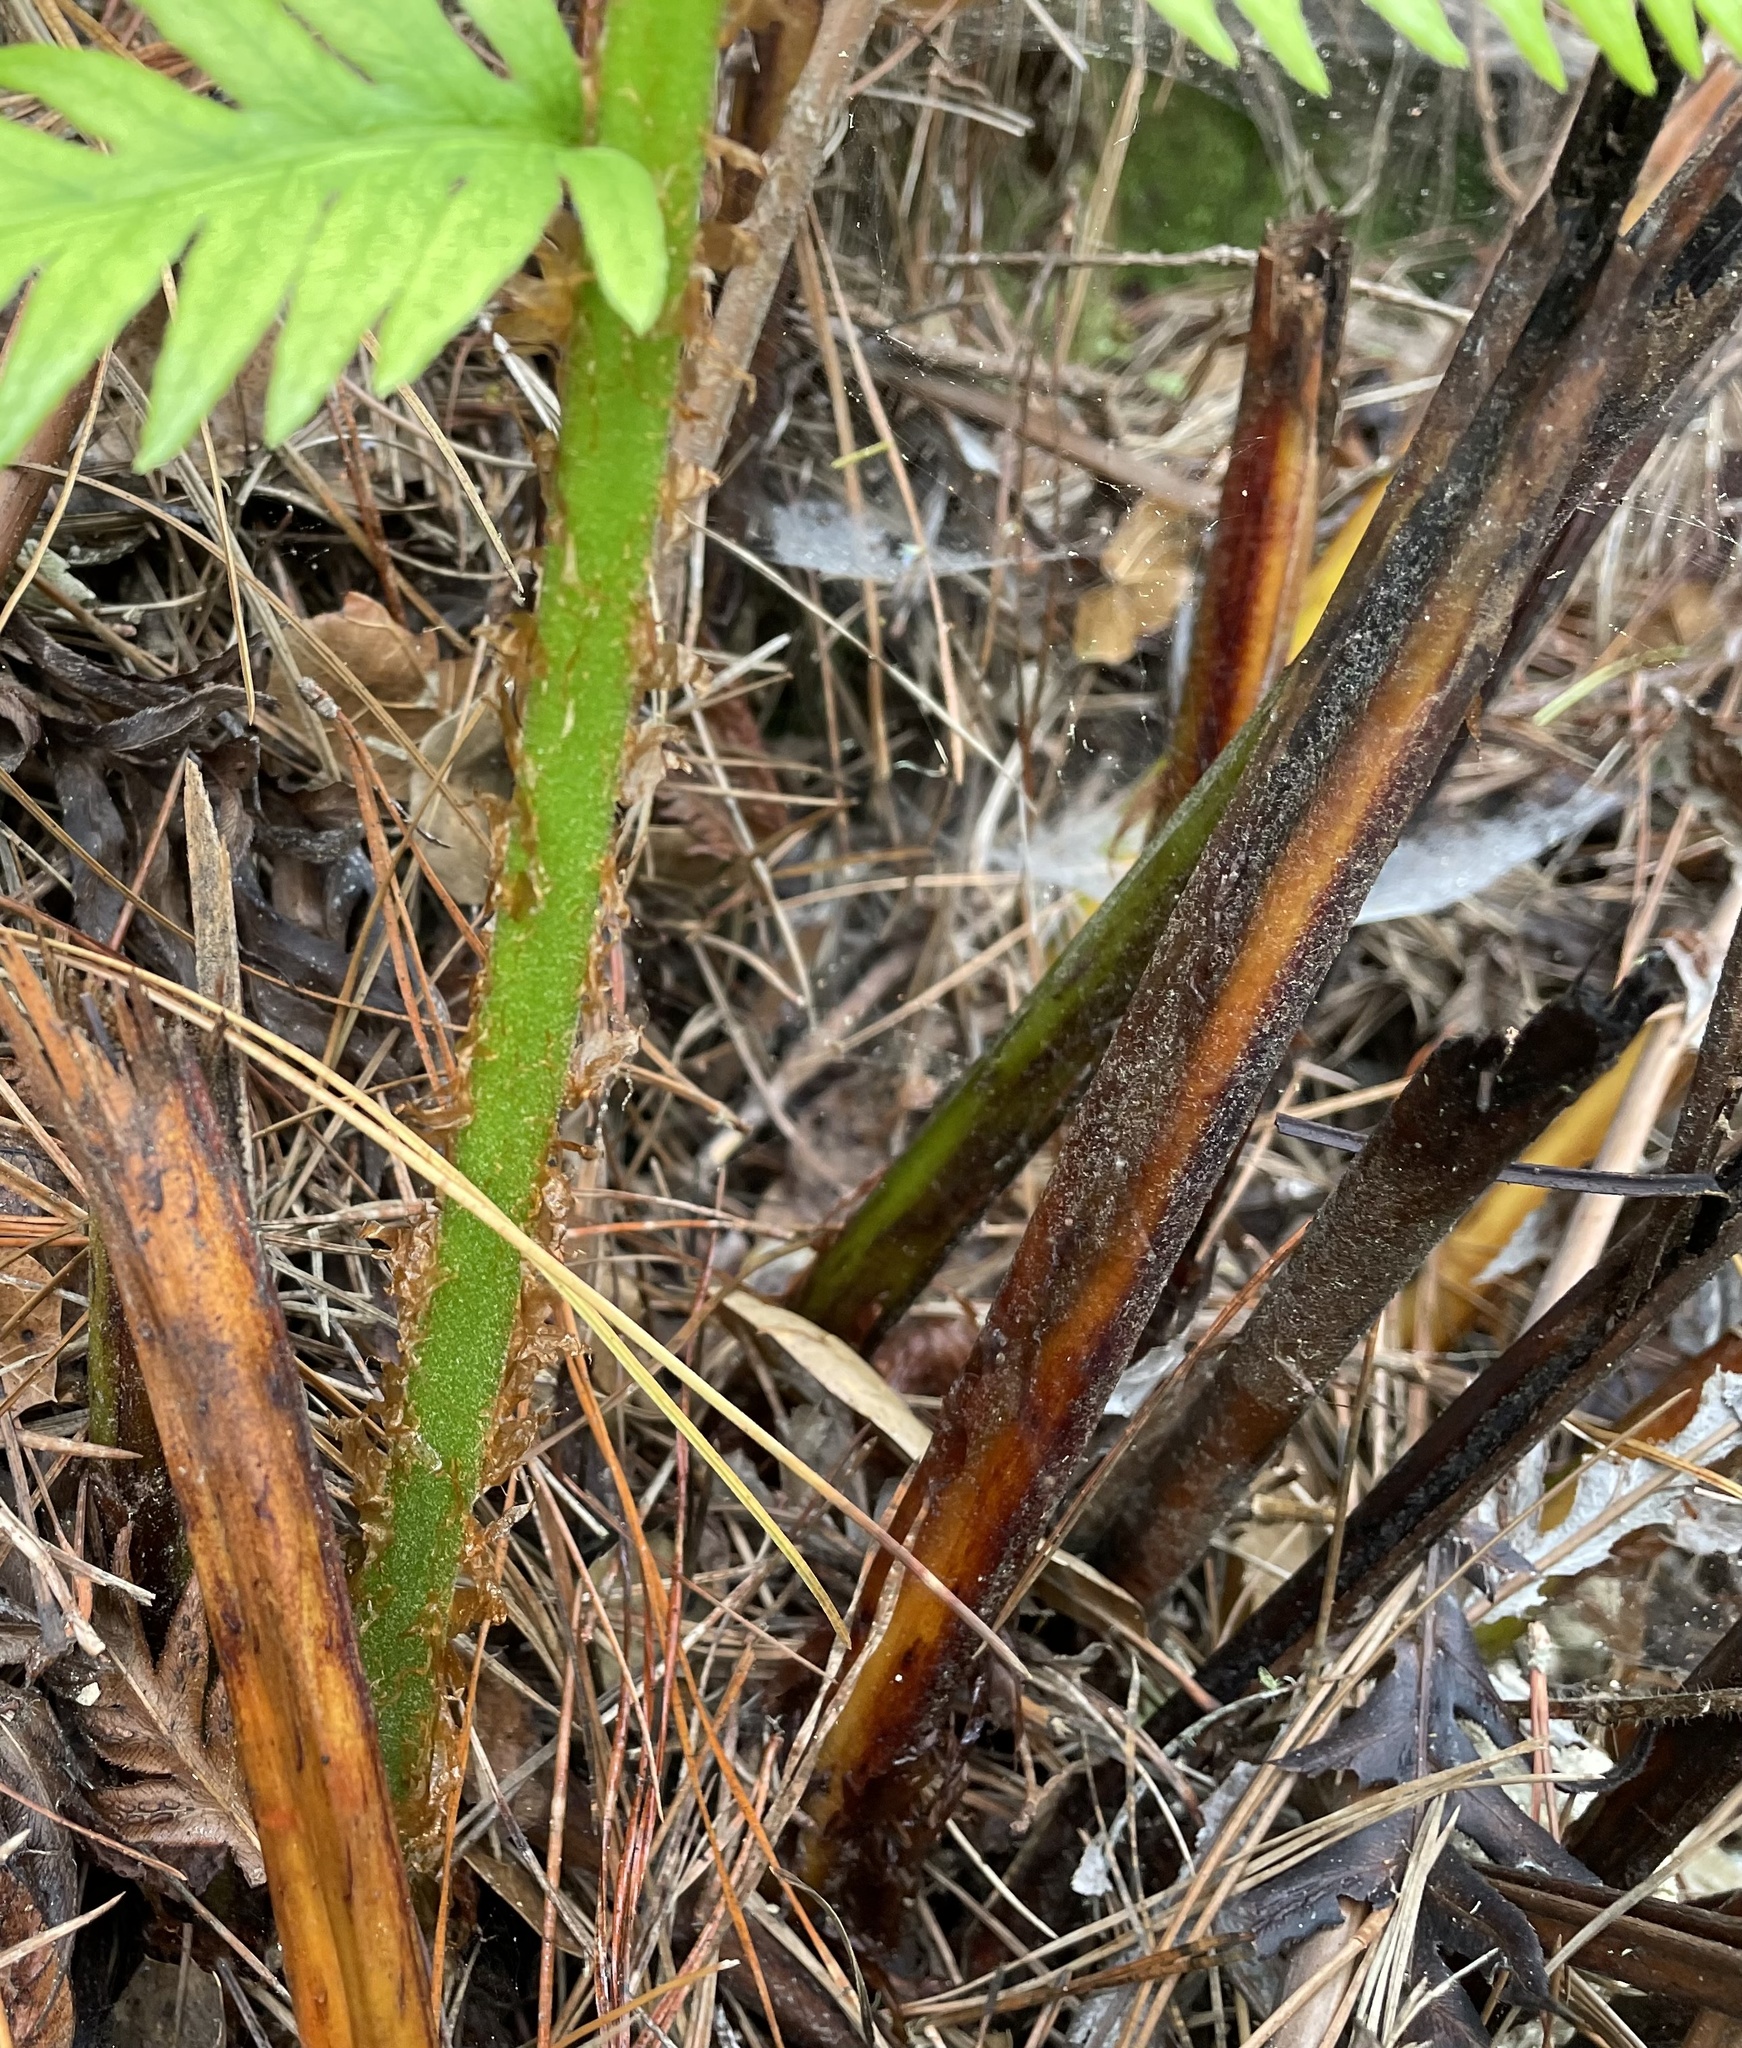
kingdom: Plantae
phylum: Tracheophyta
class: Polypodiopsida
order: Polypodiales
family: Blechnaceae
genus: Woodwardia
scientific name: Woodwardia fimbriata
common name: Giant chain fern
